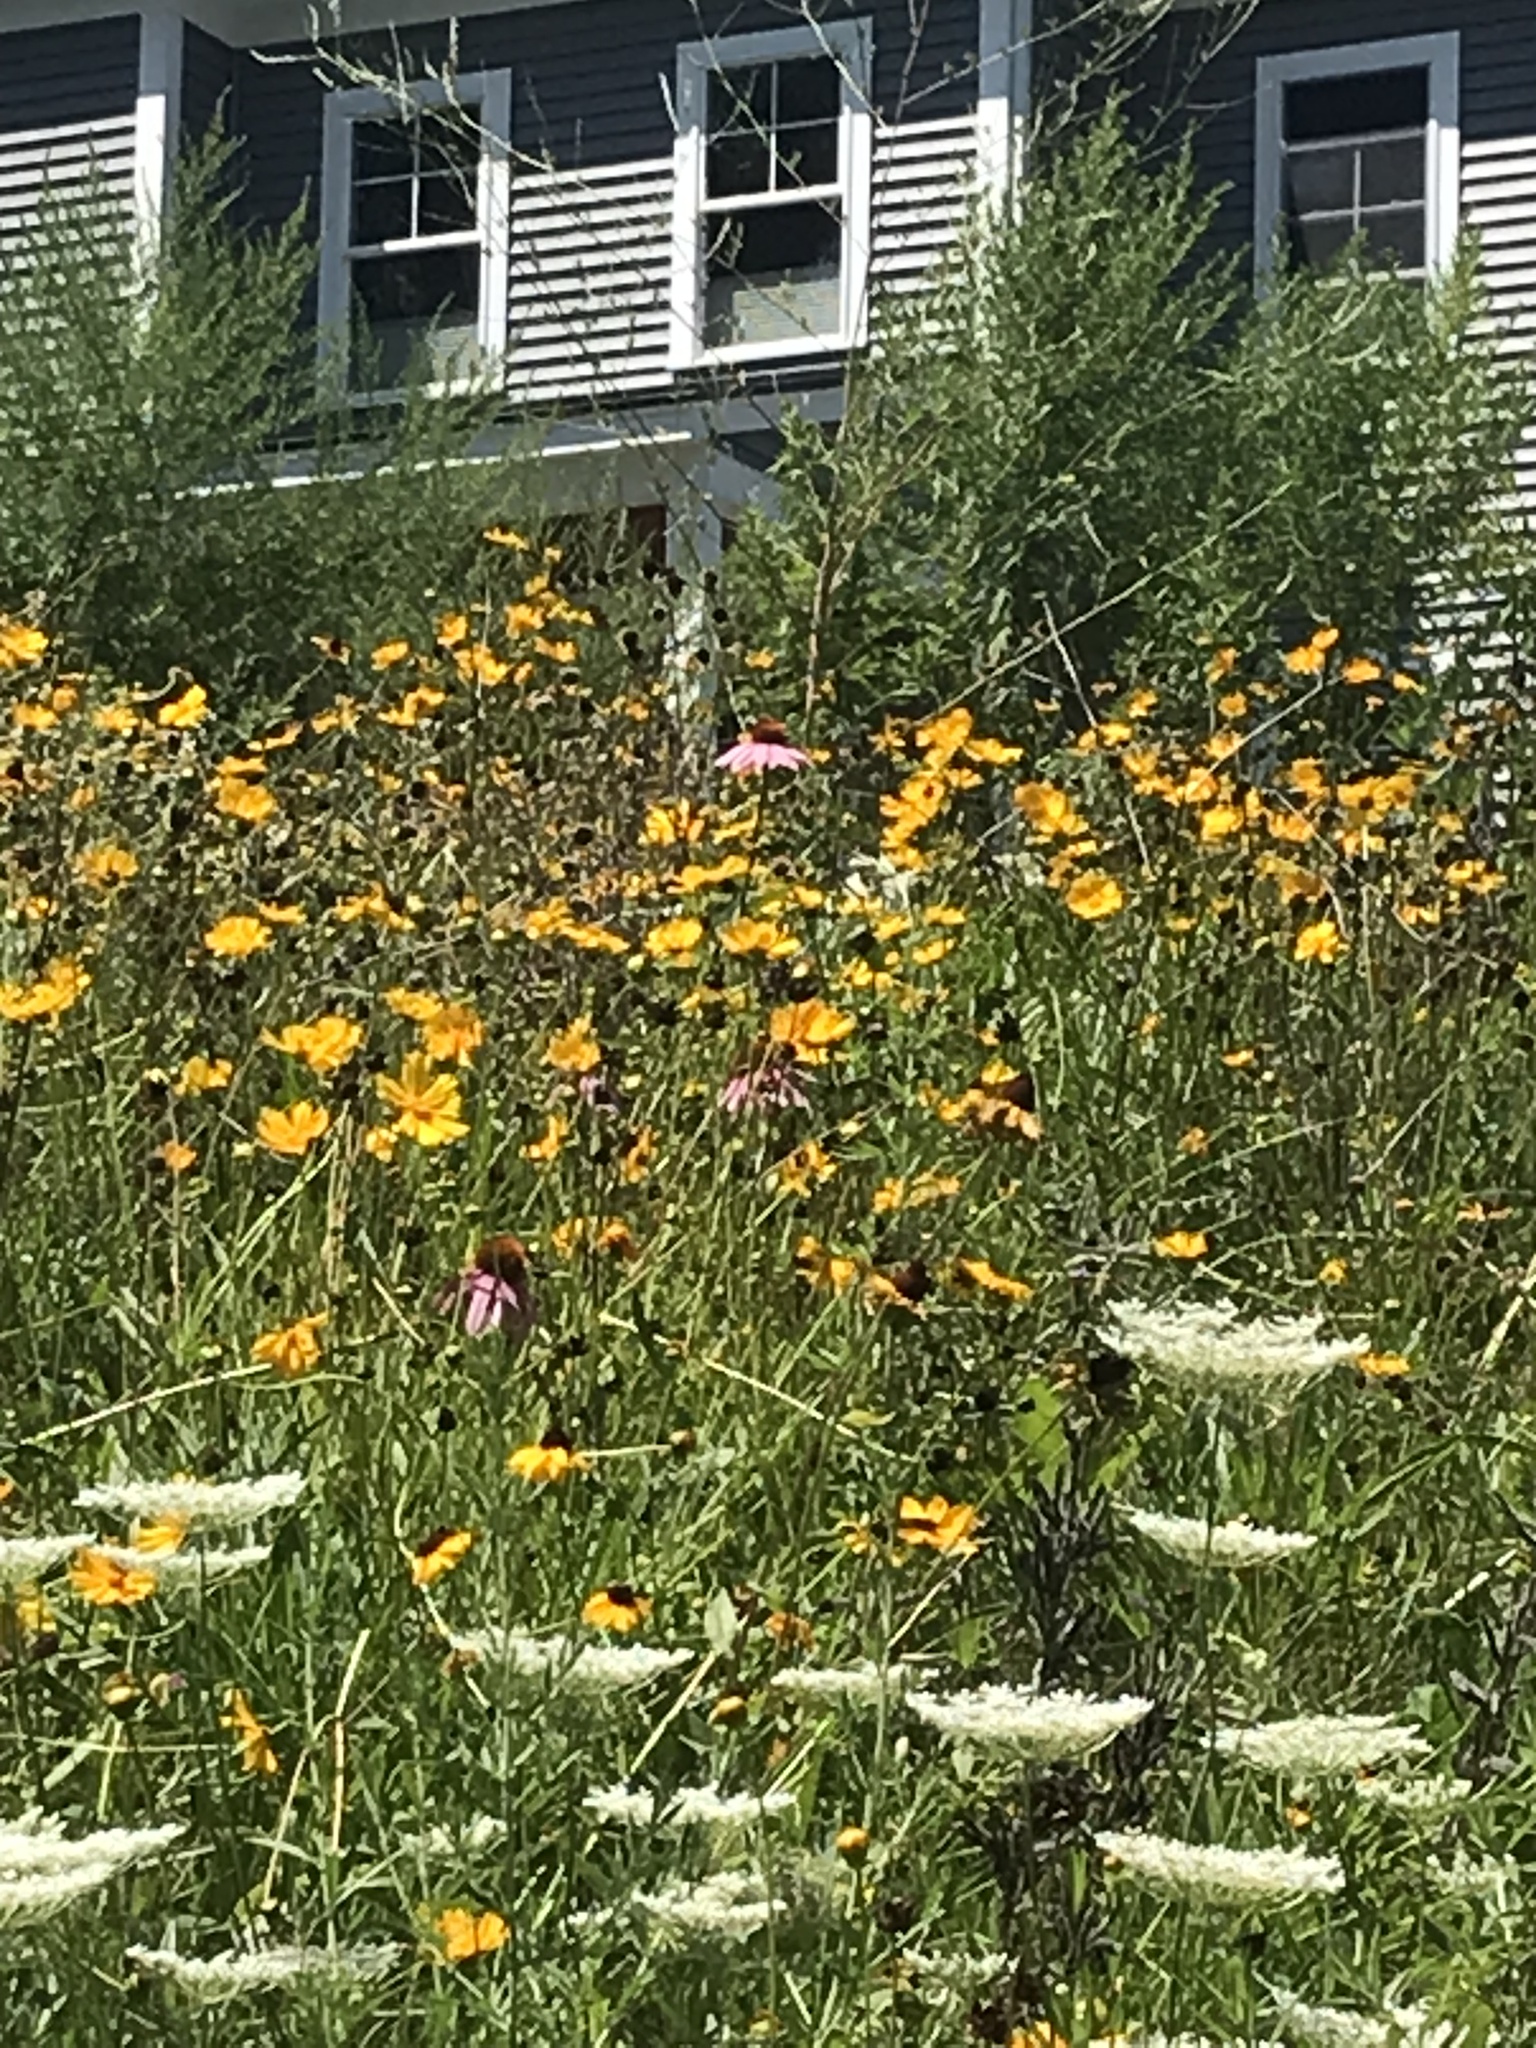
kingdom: Plantae
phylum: Tracheophyta
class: Magnoliopsida
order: Asterales
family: Asteraceae
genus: Echinacea
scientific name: Echinacea purpurea
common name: Broad-leaved purple coneflower
